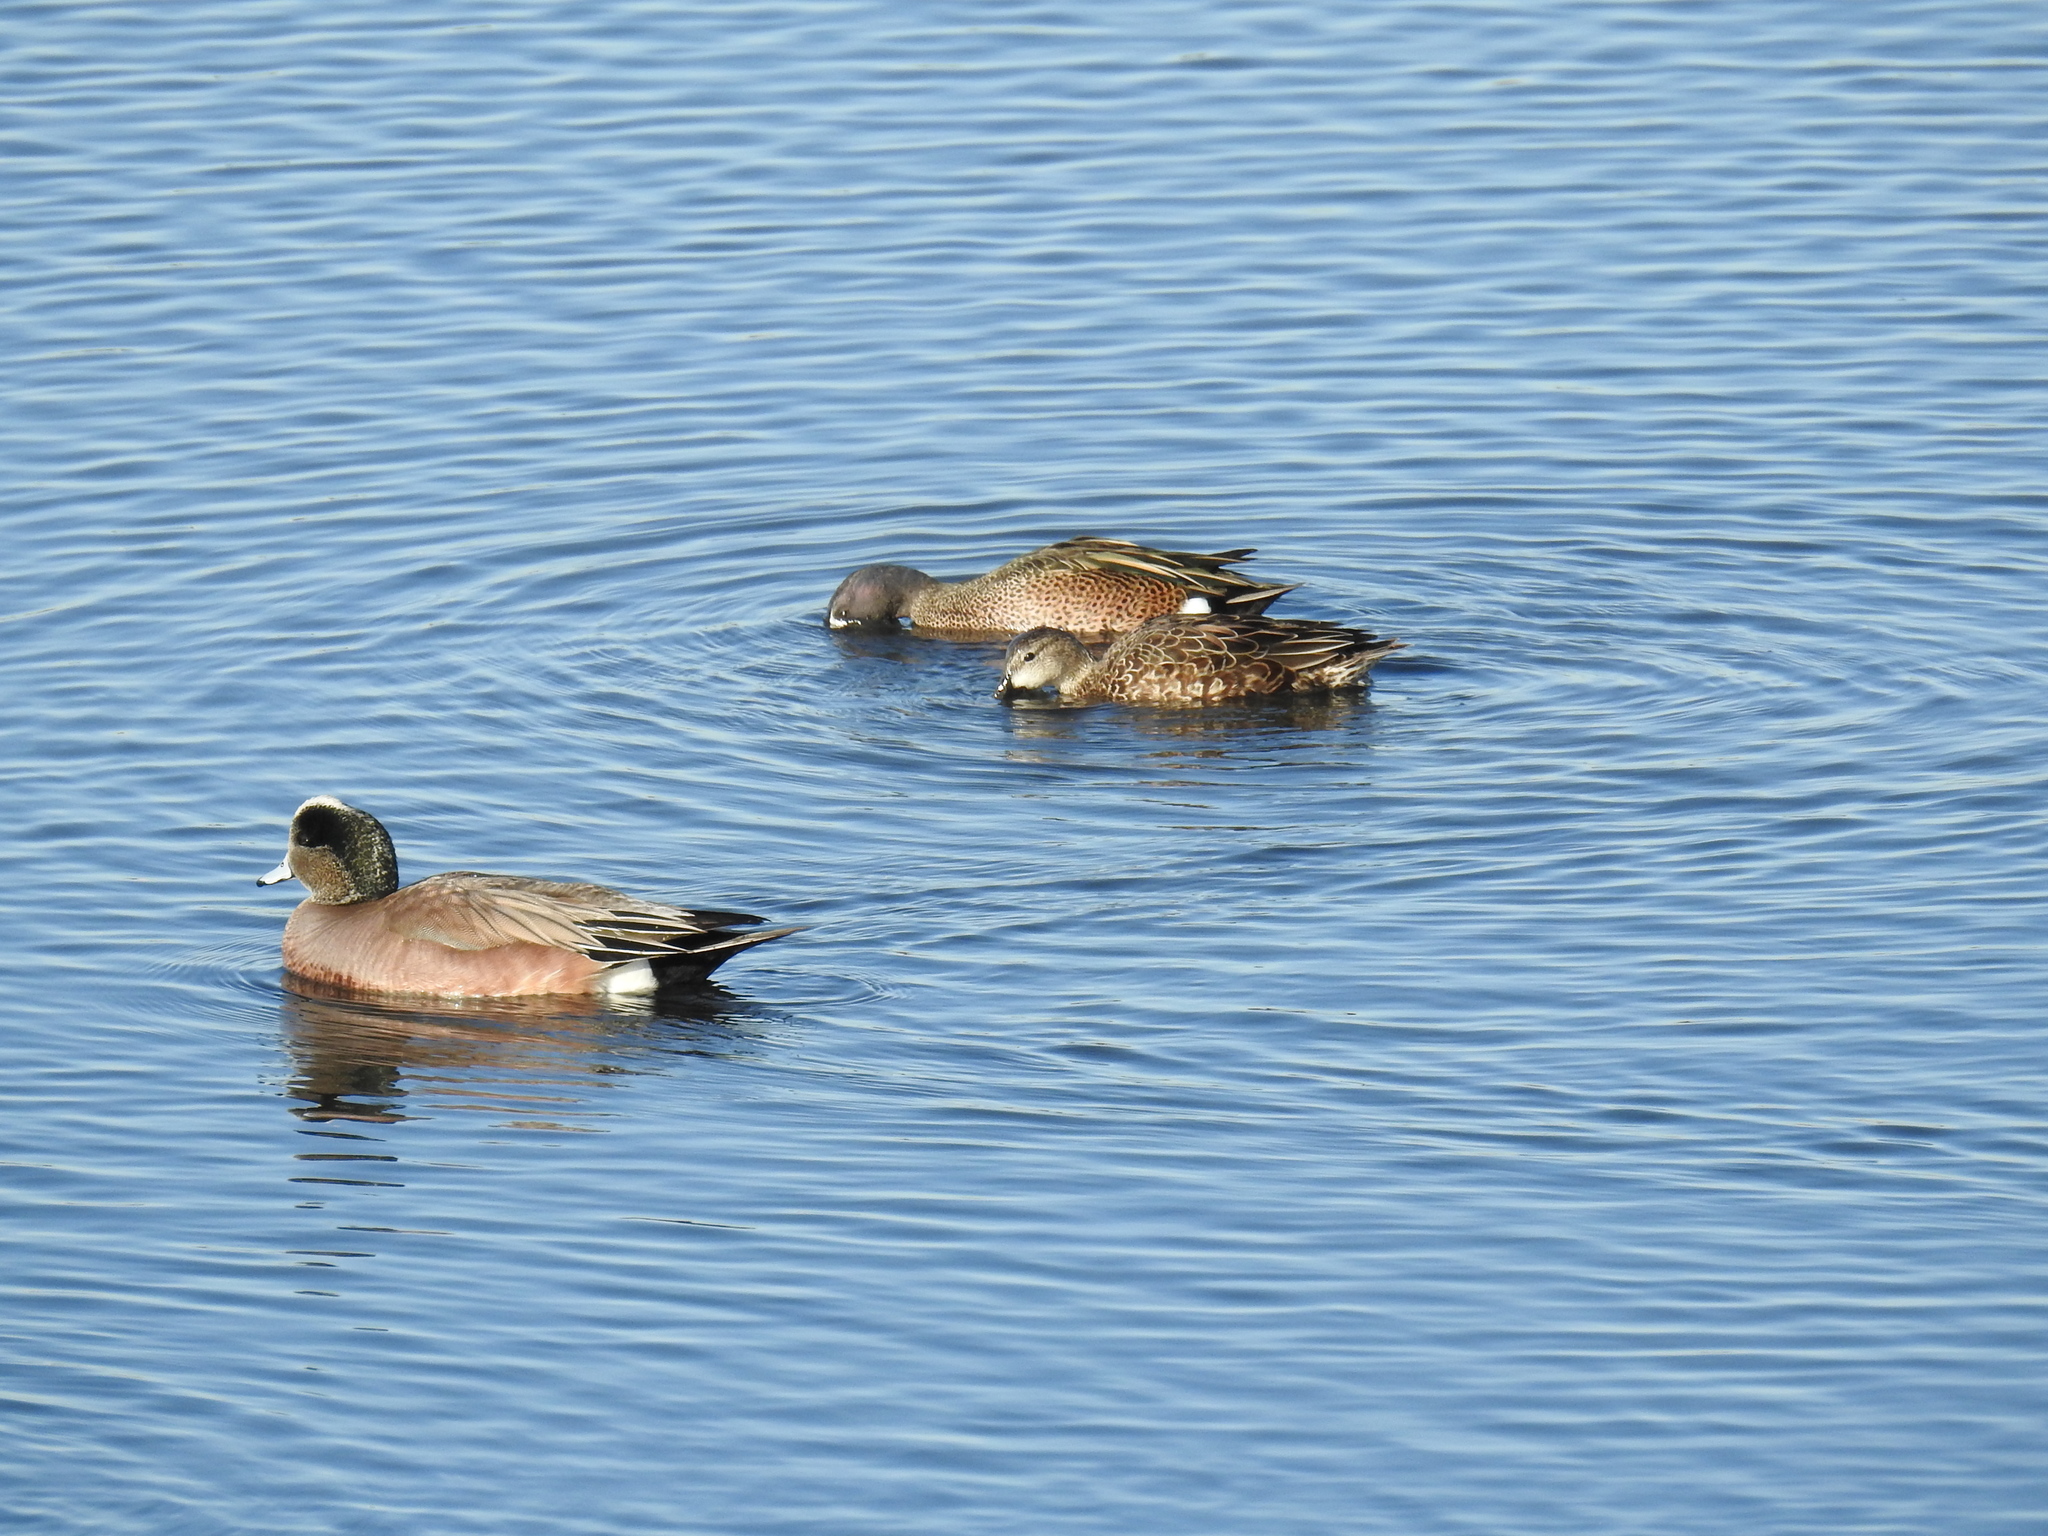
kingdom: Animalia
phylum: Chordata
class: Aves
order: Anseriformes
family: Anatidae
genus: Spatula
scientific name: Spatula discors
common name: Blue-winged teal
